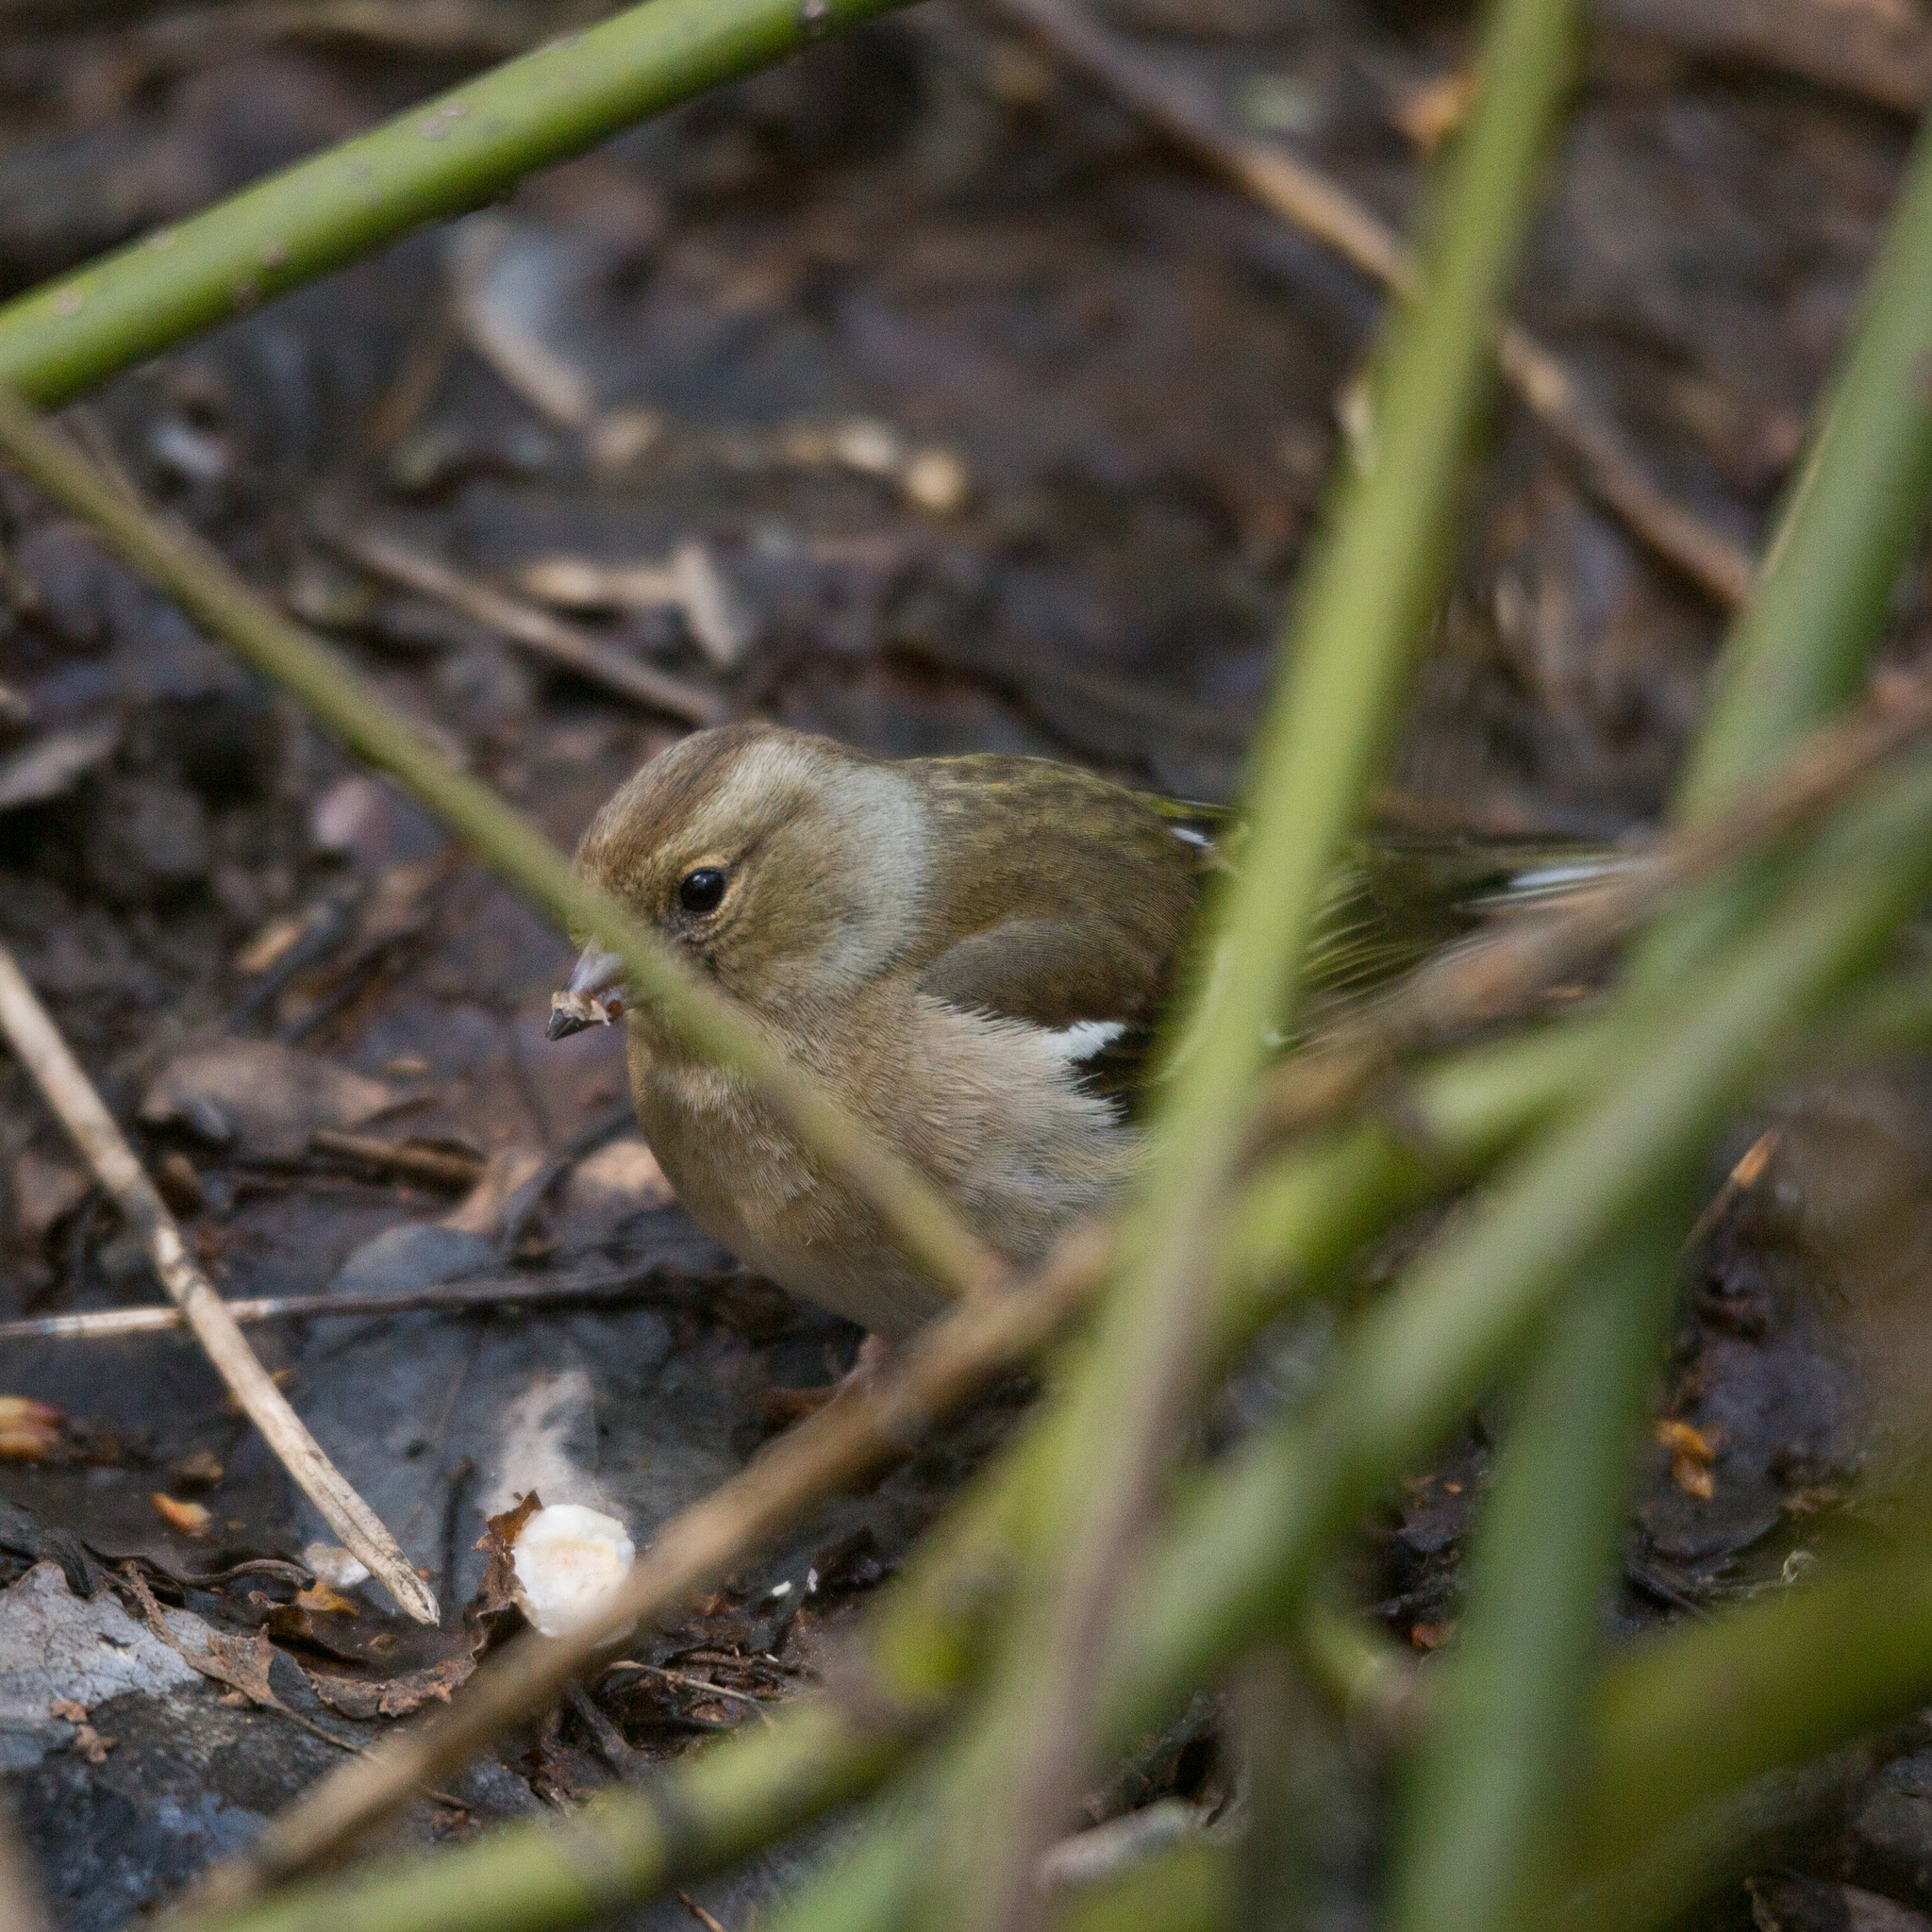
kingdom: Animalia
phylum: Chordata
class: Aves
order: Passeriformes
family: Fringillidae
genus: Fringilla
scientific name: Fringilla coelebs
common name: Common chaffinch
